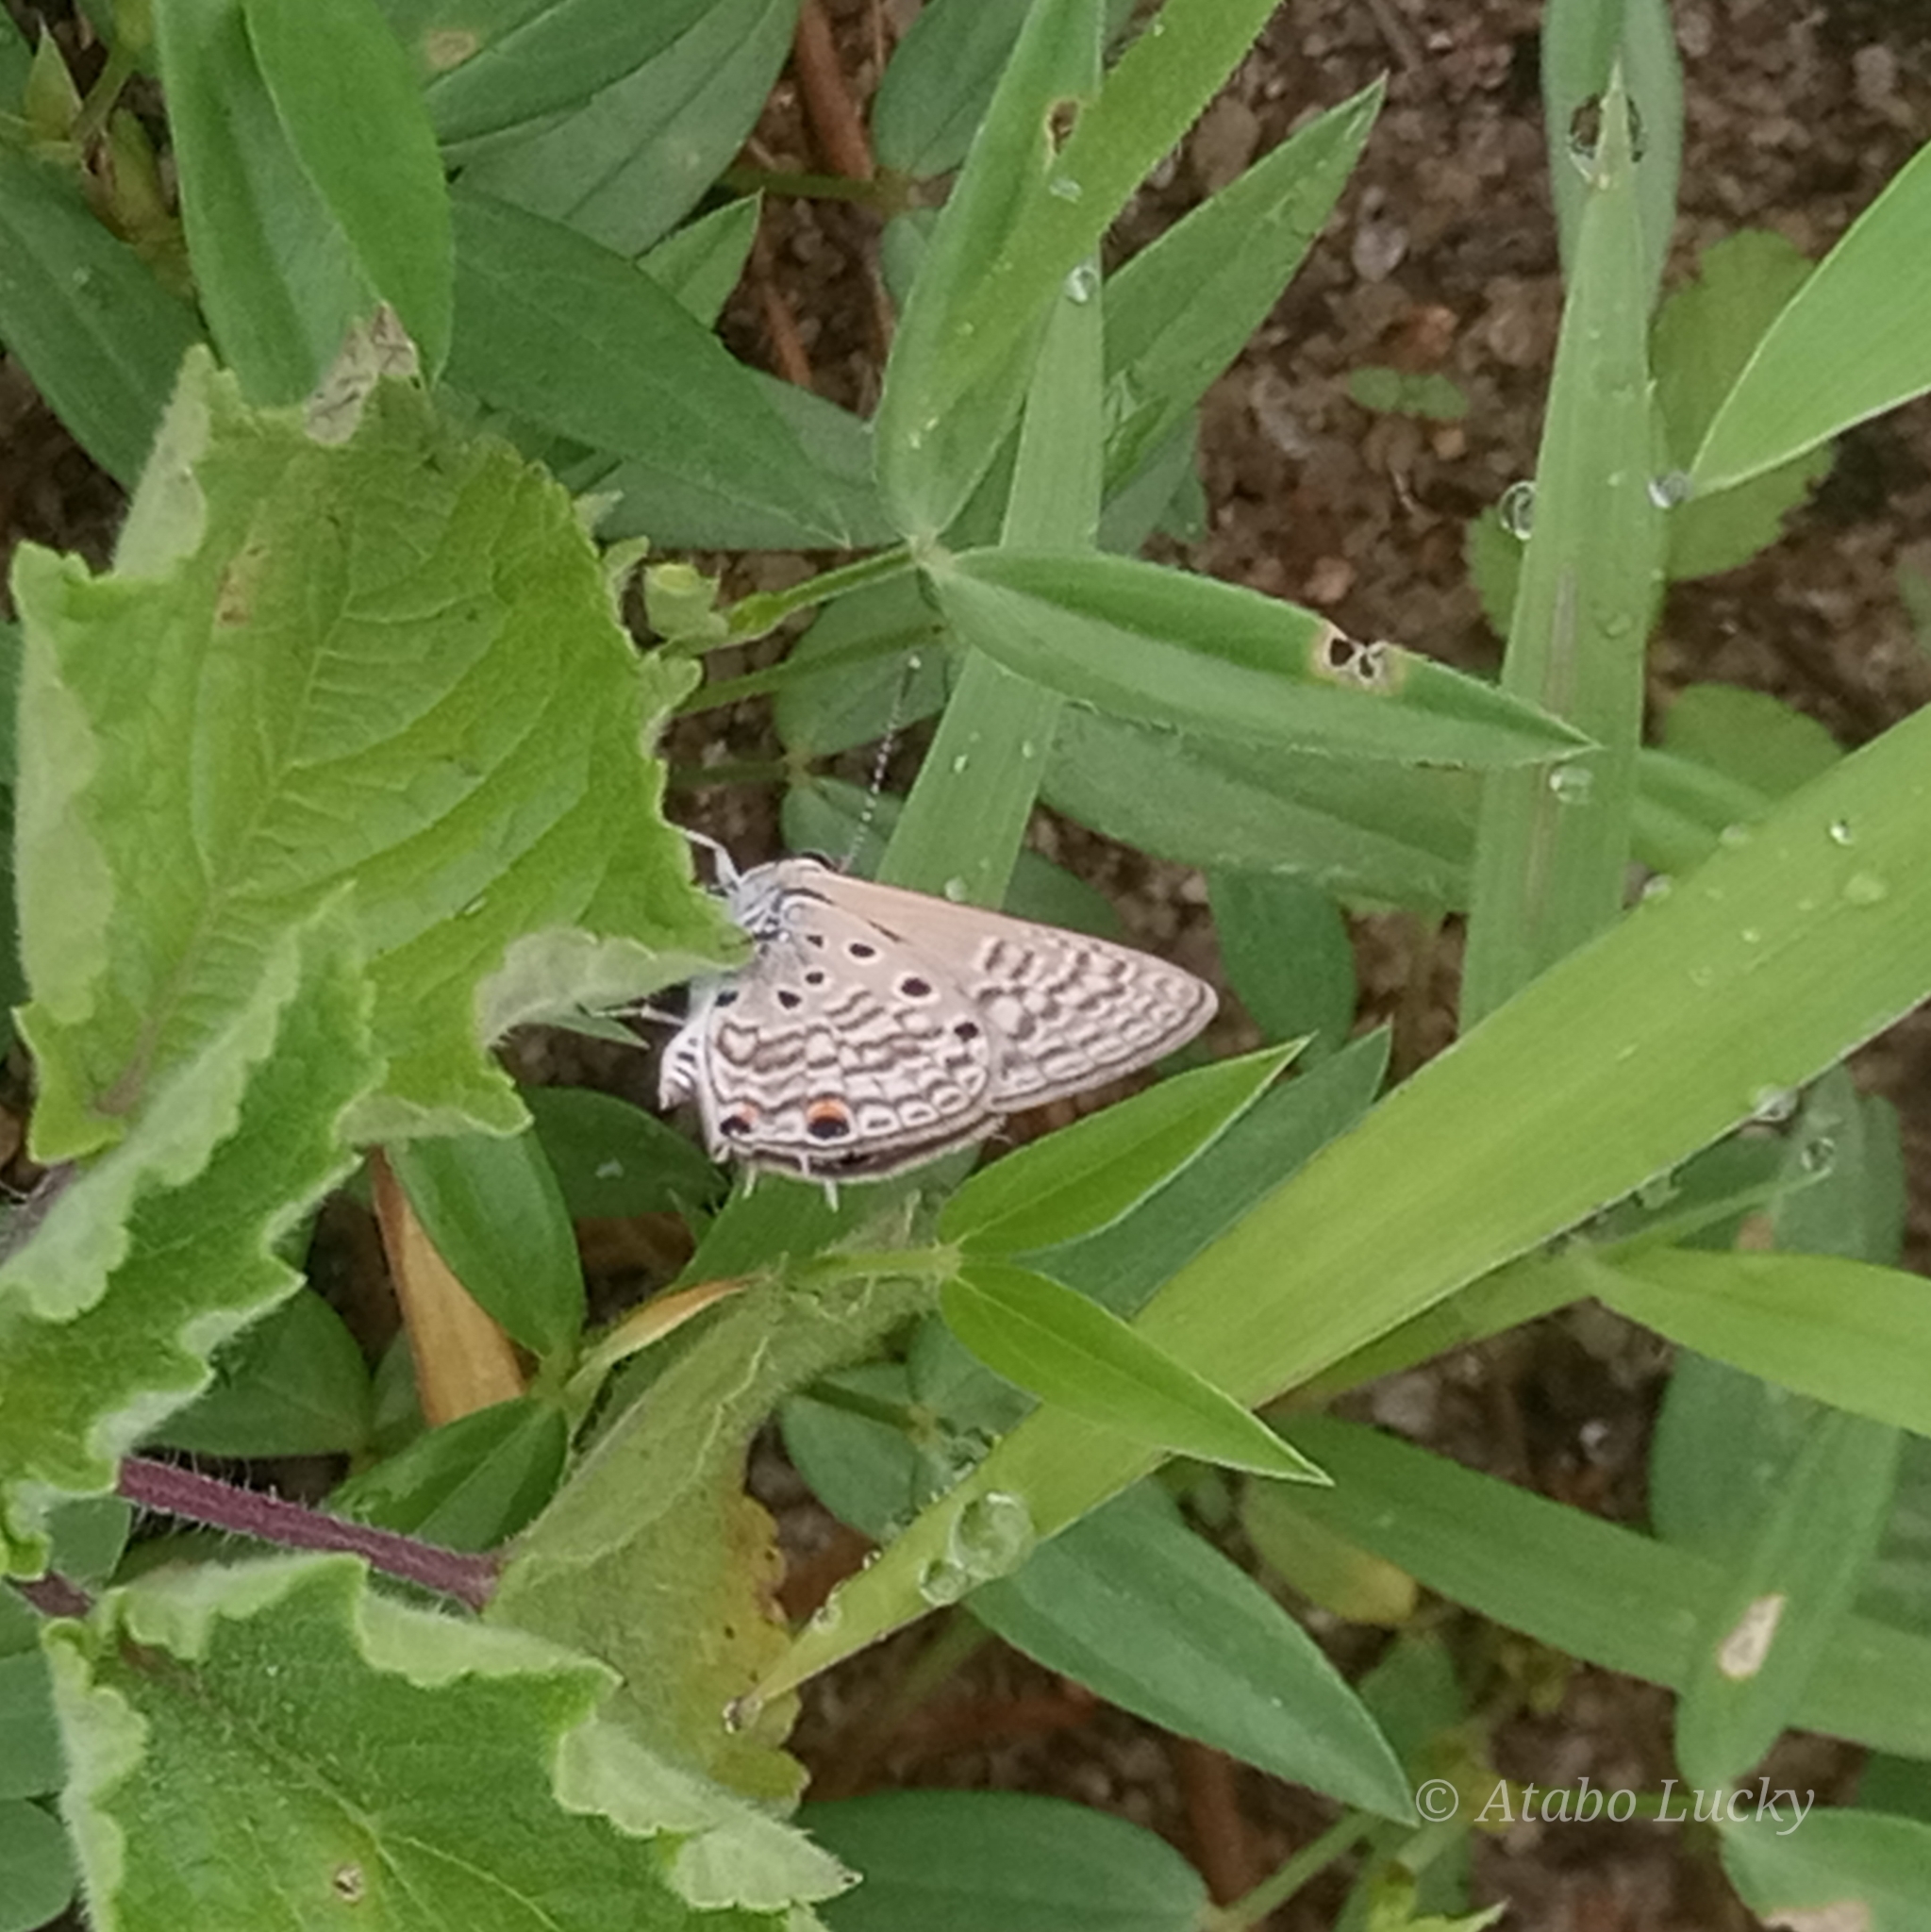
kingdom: Animalia
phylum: Arthropoda
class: Insecta
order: Lepidoptera
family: Lycaenidae
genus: Anthene
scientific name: Anthene amarah
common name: Black-striped hairtail
